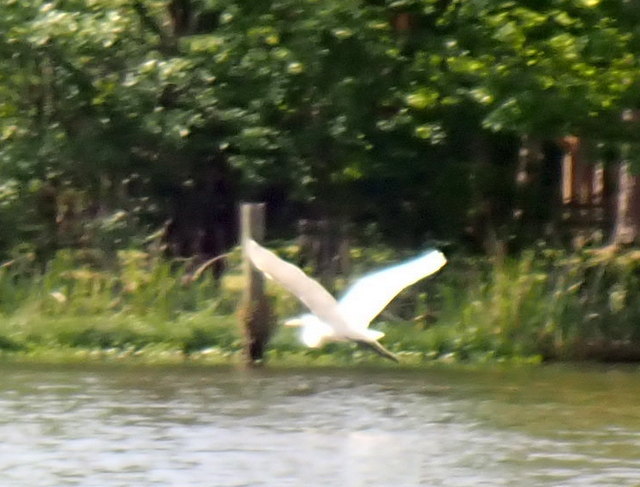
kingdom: Animalia
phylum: Chordata
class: Aves
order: Pelecaniformes
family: Ardeidae
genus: Ardea
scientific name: Ardea alba
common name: Great egret
